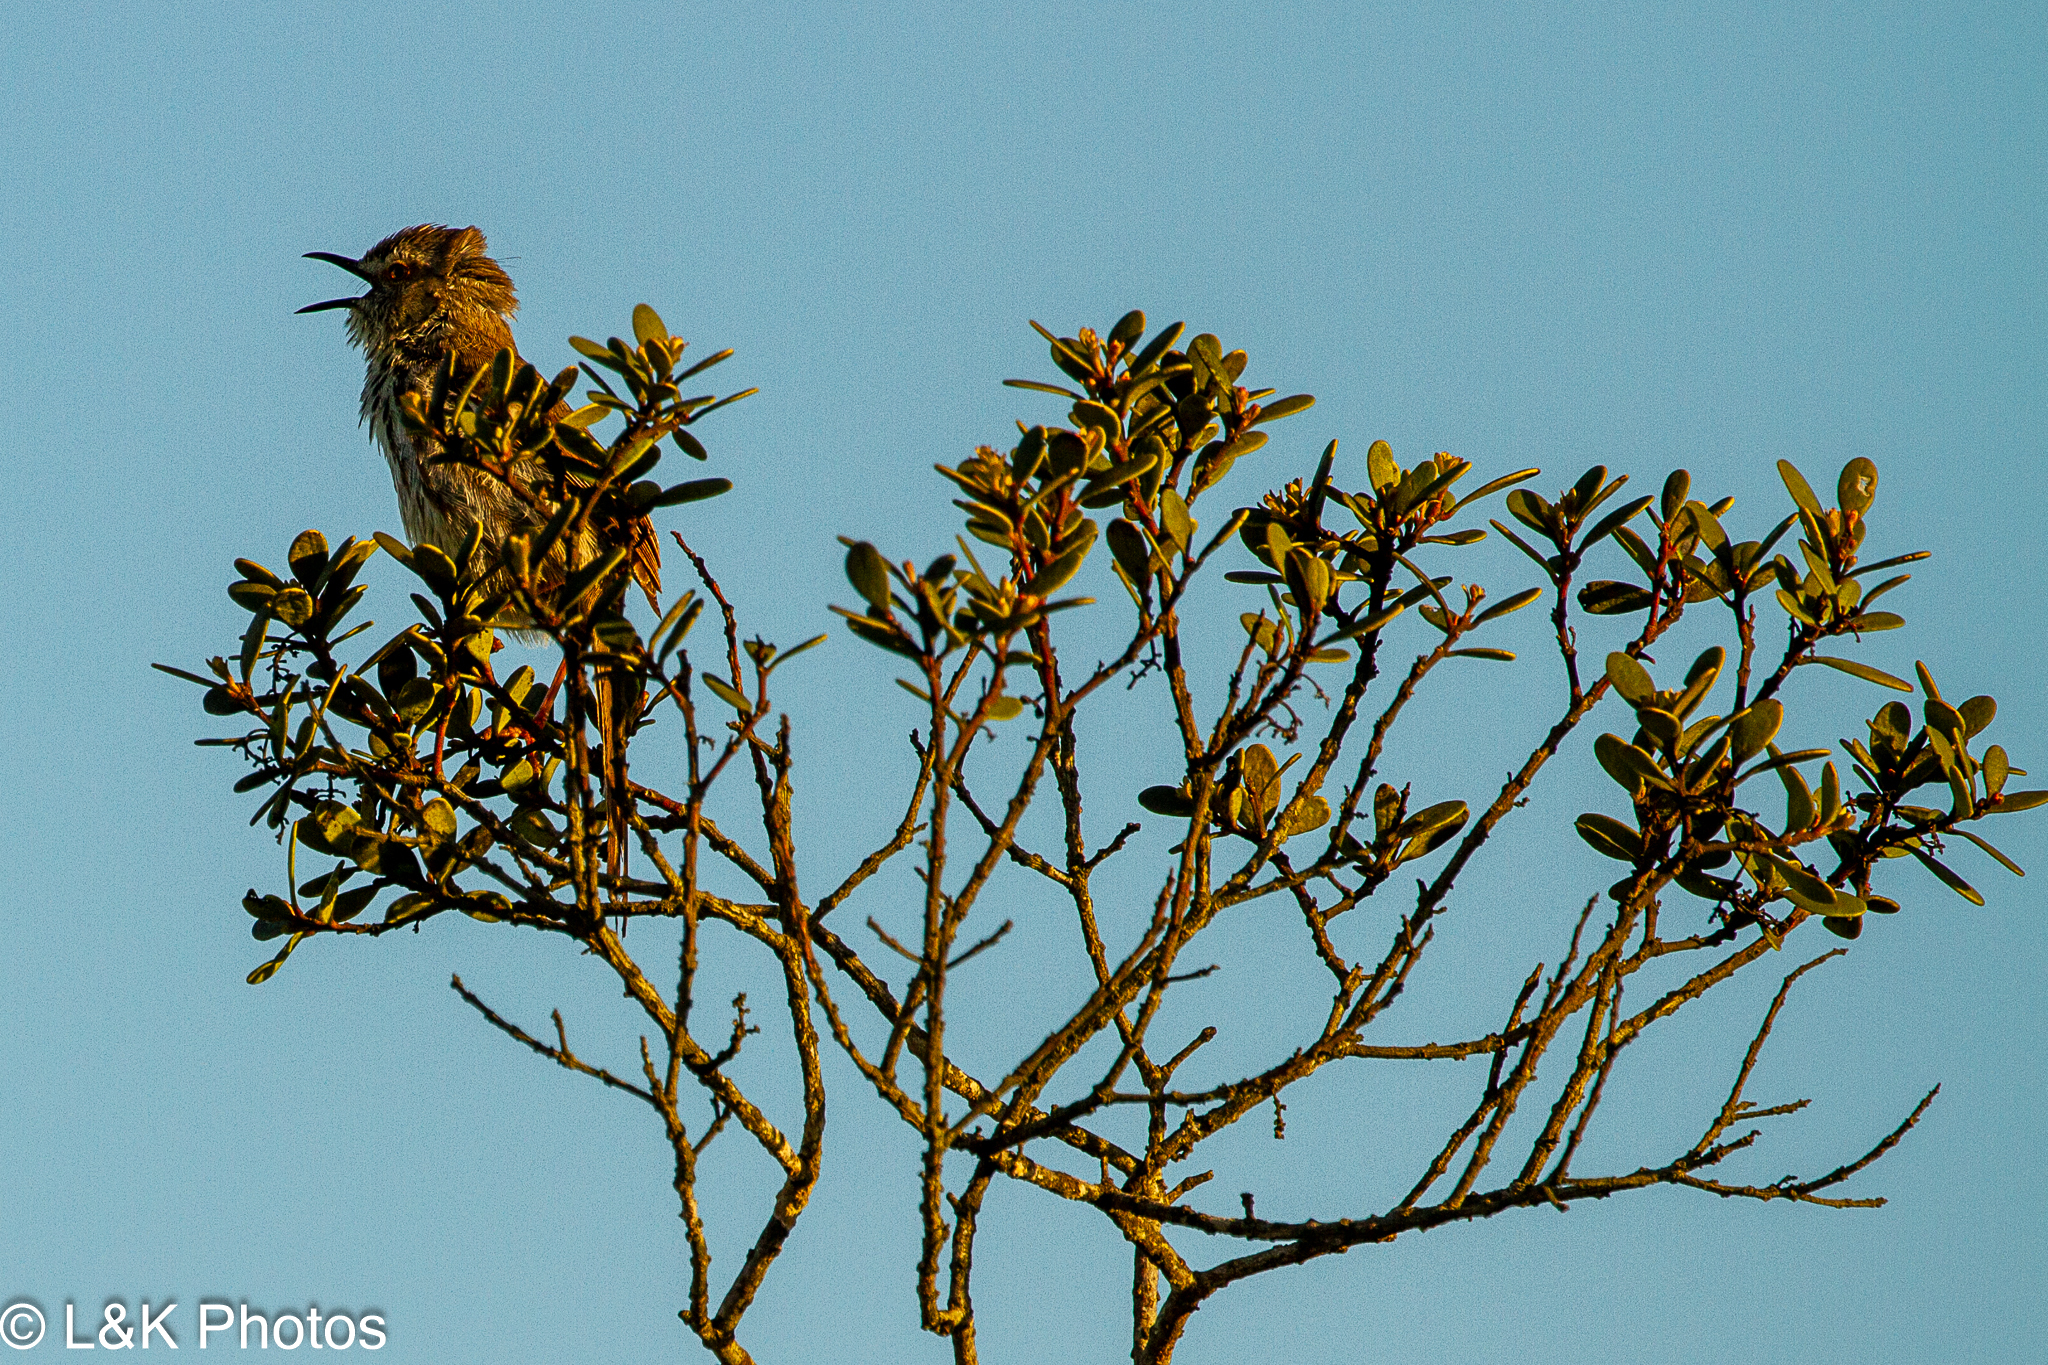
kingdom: Animalia
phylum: Chordata
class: Aves
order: Passeriformes
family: Cisticolidae
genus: Prinia
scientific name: Prinia maculosa
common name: Karoo prinia
